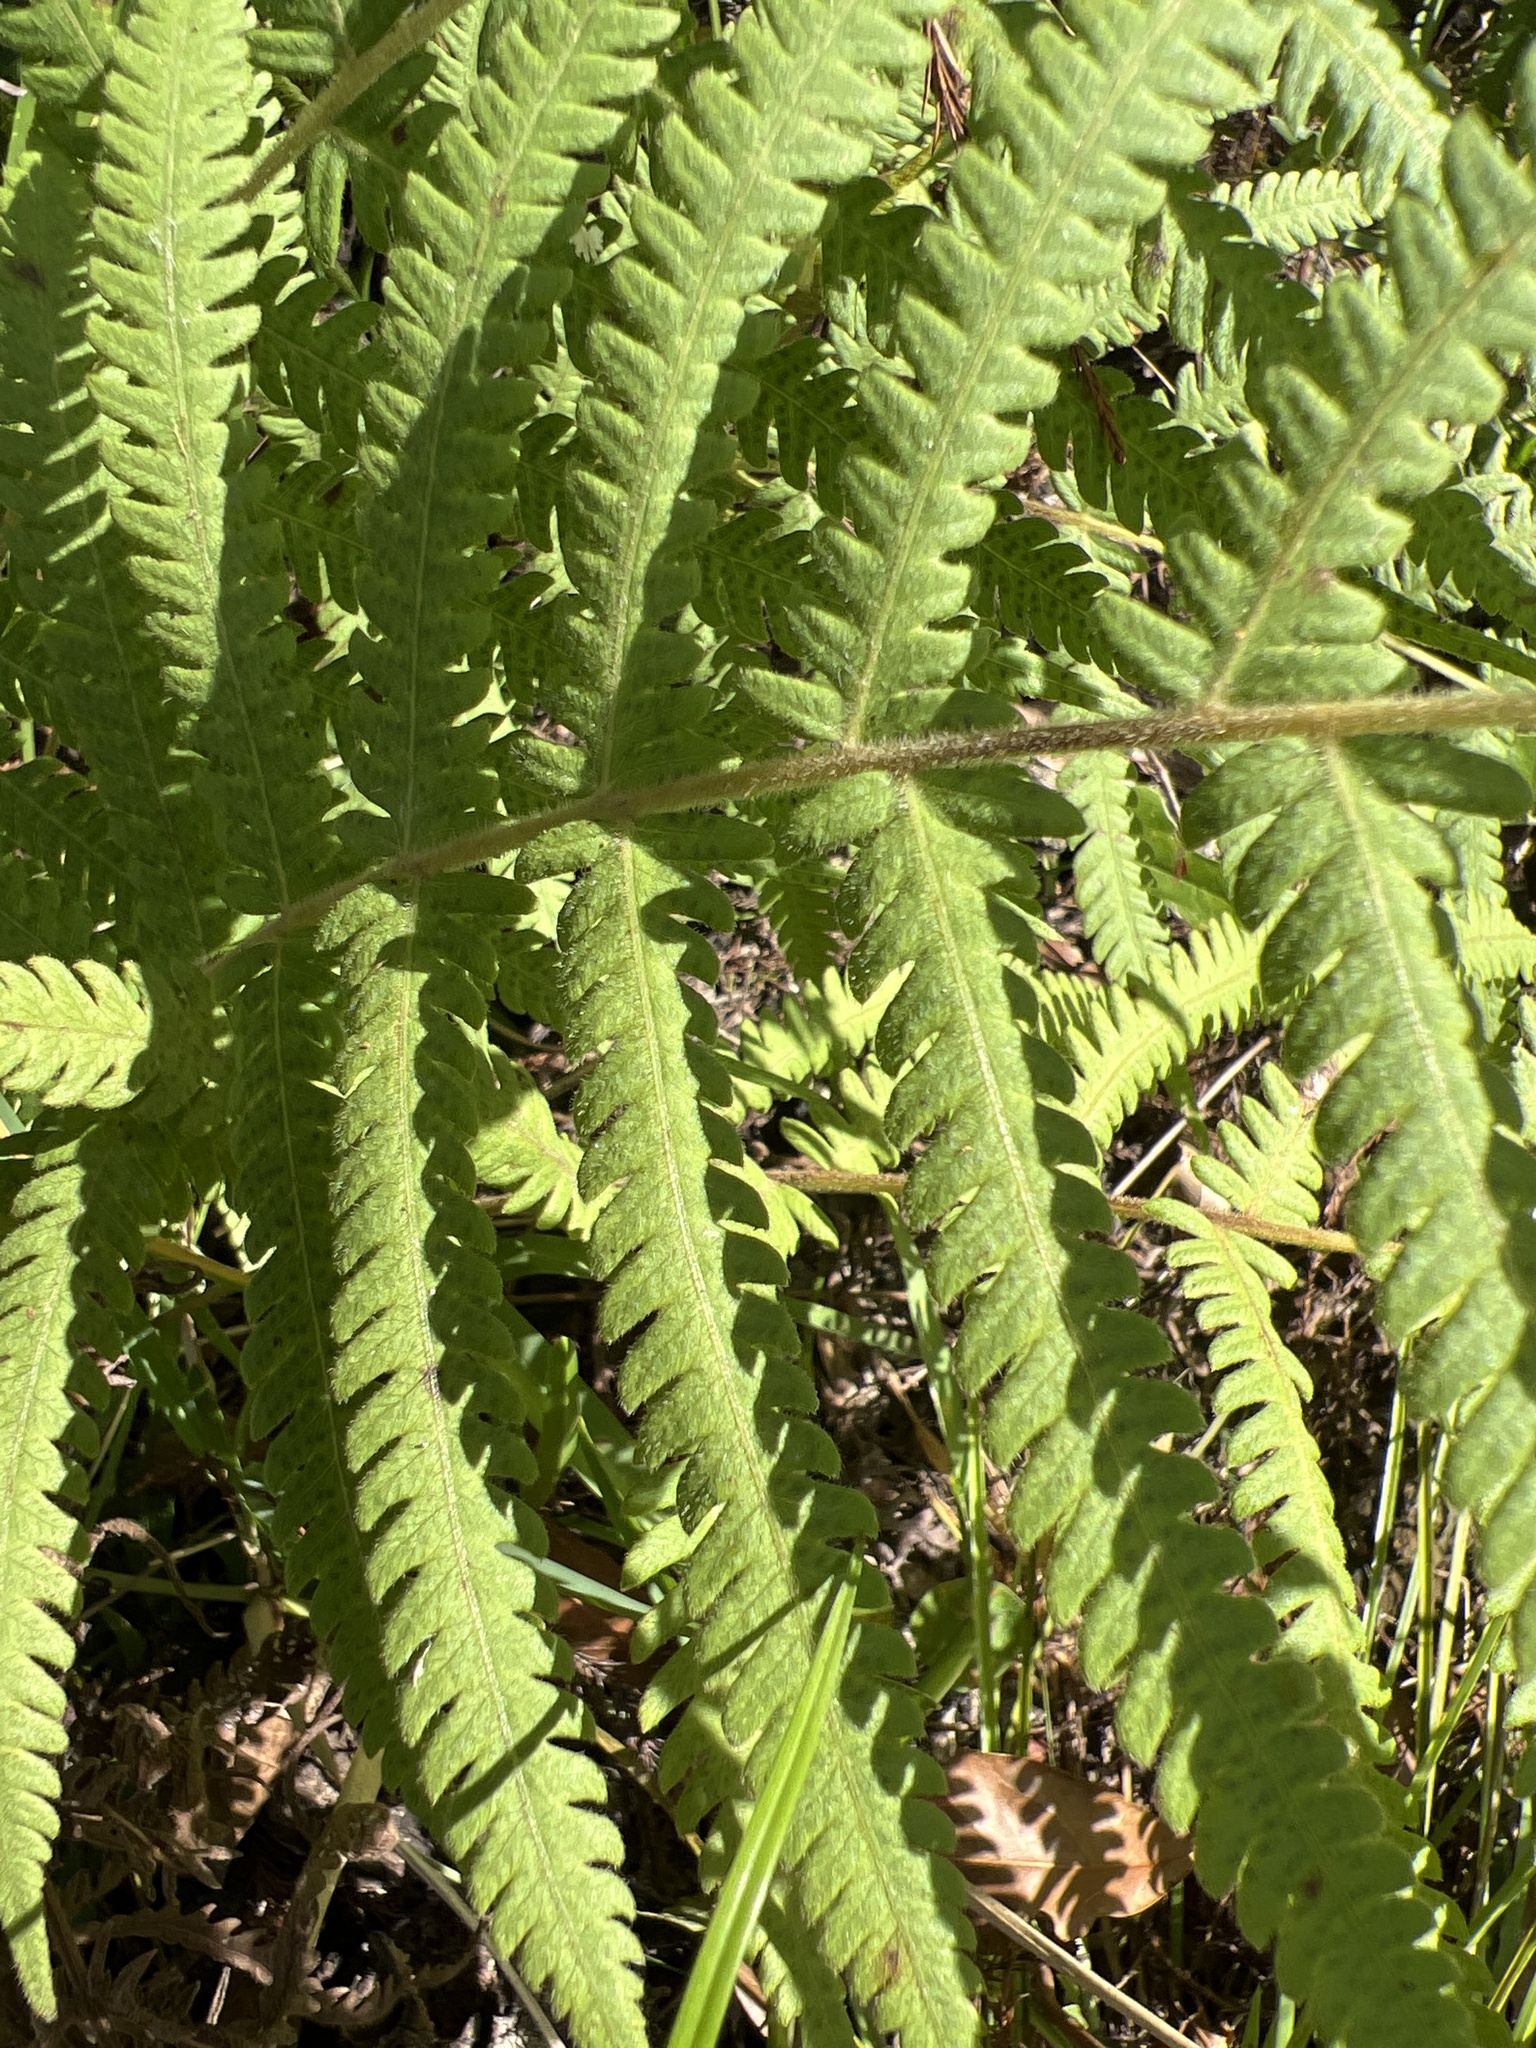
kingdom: Plantae
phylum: Tracheophyta
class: Polypodiopsida
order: Polypodiales
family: Thelypteridaceae
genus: Pelazoneuron
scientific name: Pelazoneuron kunthii
